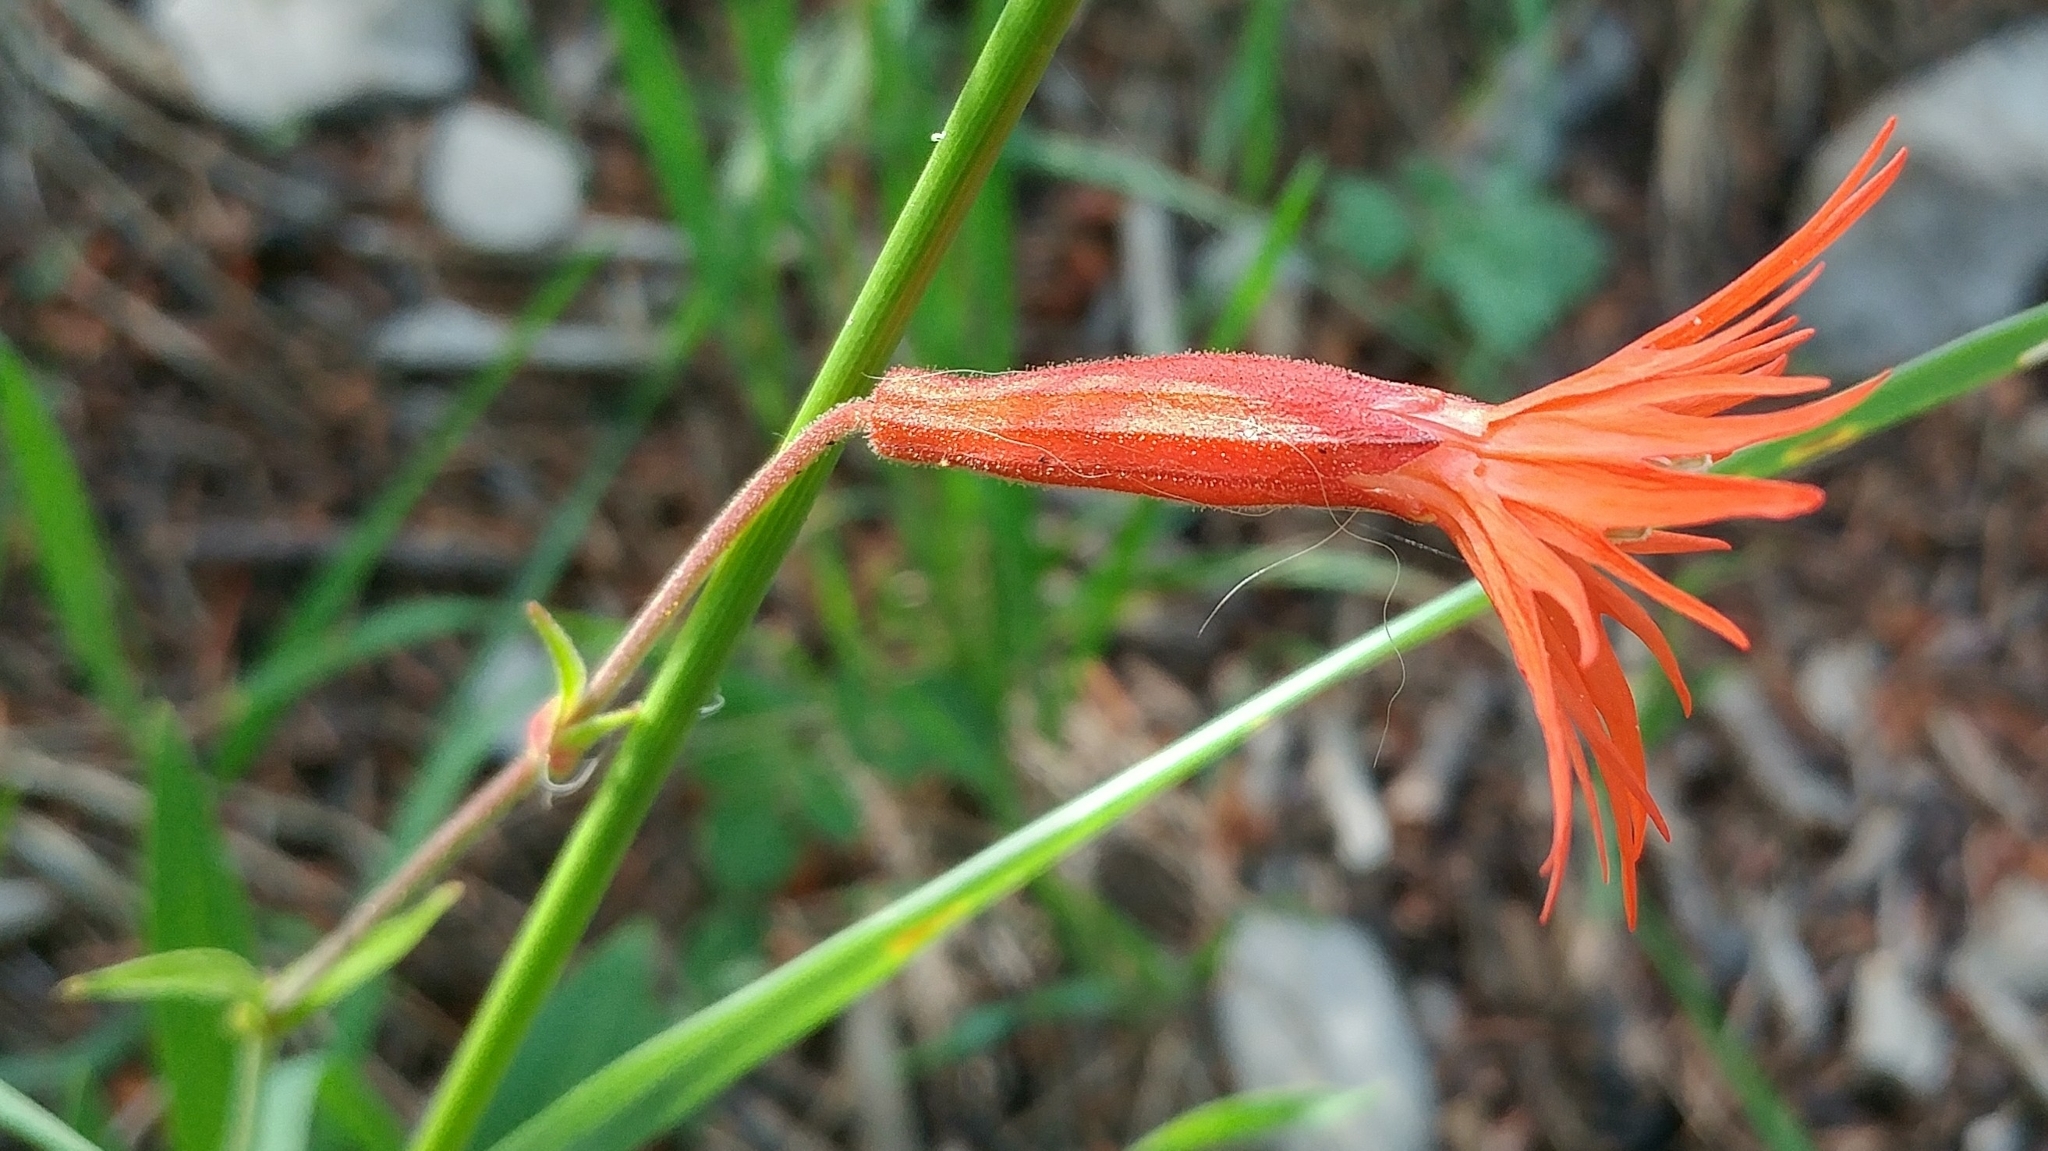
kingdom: Plantae
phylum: Tracheophyta
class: Magnoliopsida
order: Caryophyllales
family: Caryophyllaceae
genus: Silene
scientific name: Silene laciniata
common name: Indian-pink
